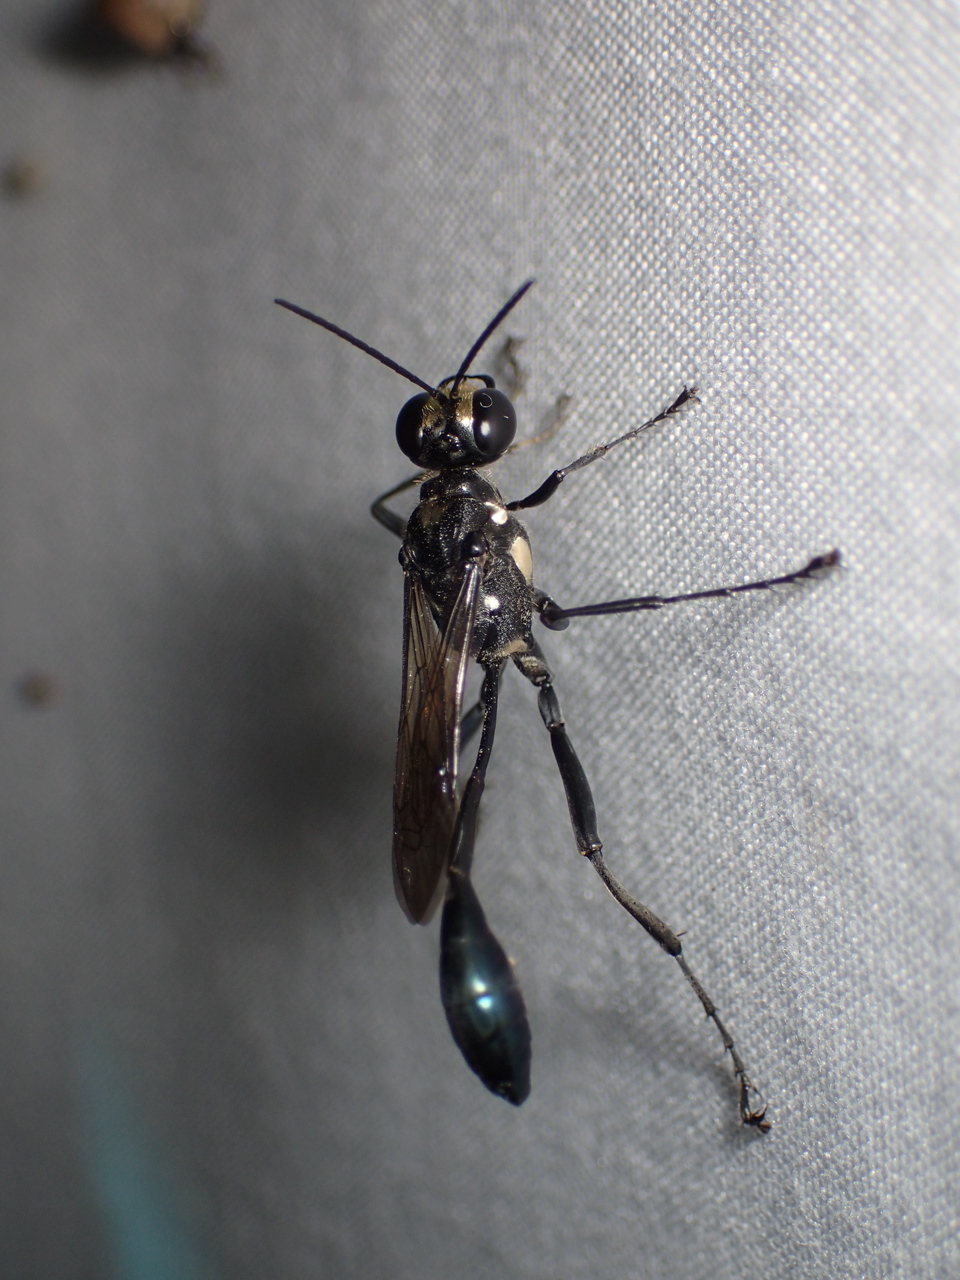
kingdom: Animalia
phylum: Arthropoda
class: Insecta
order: Hymenoptera
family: Sphecidae
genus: Eremnophila
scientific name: Eremnophila aureonotata
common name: Gold-marked thread-waisted wasp
